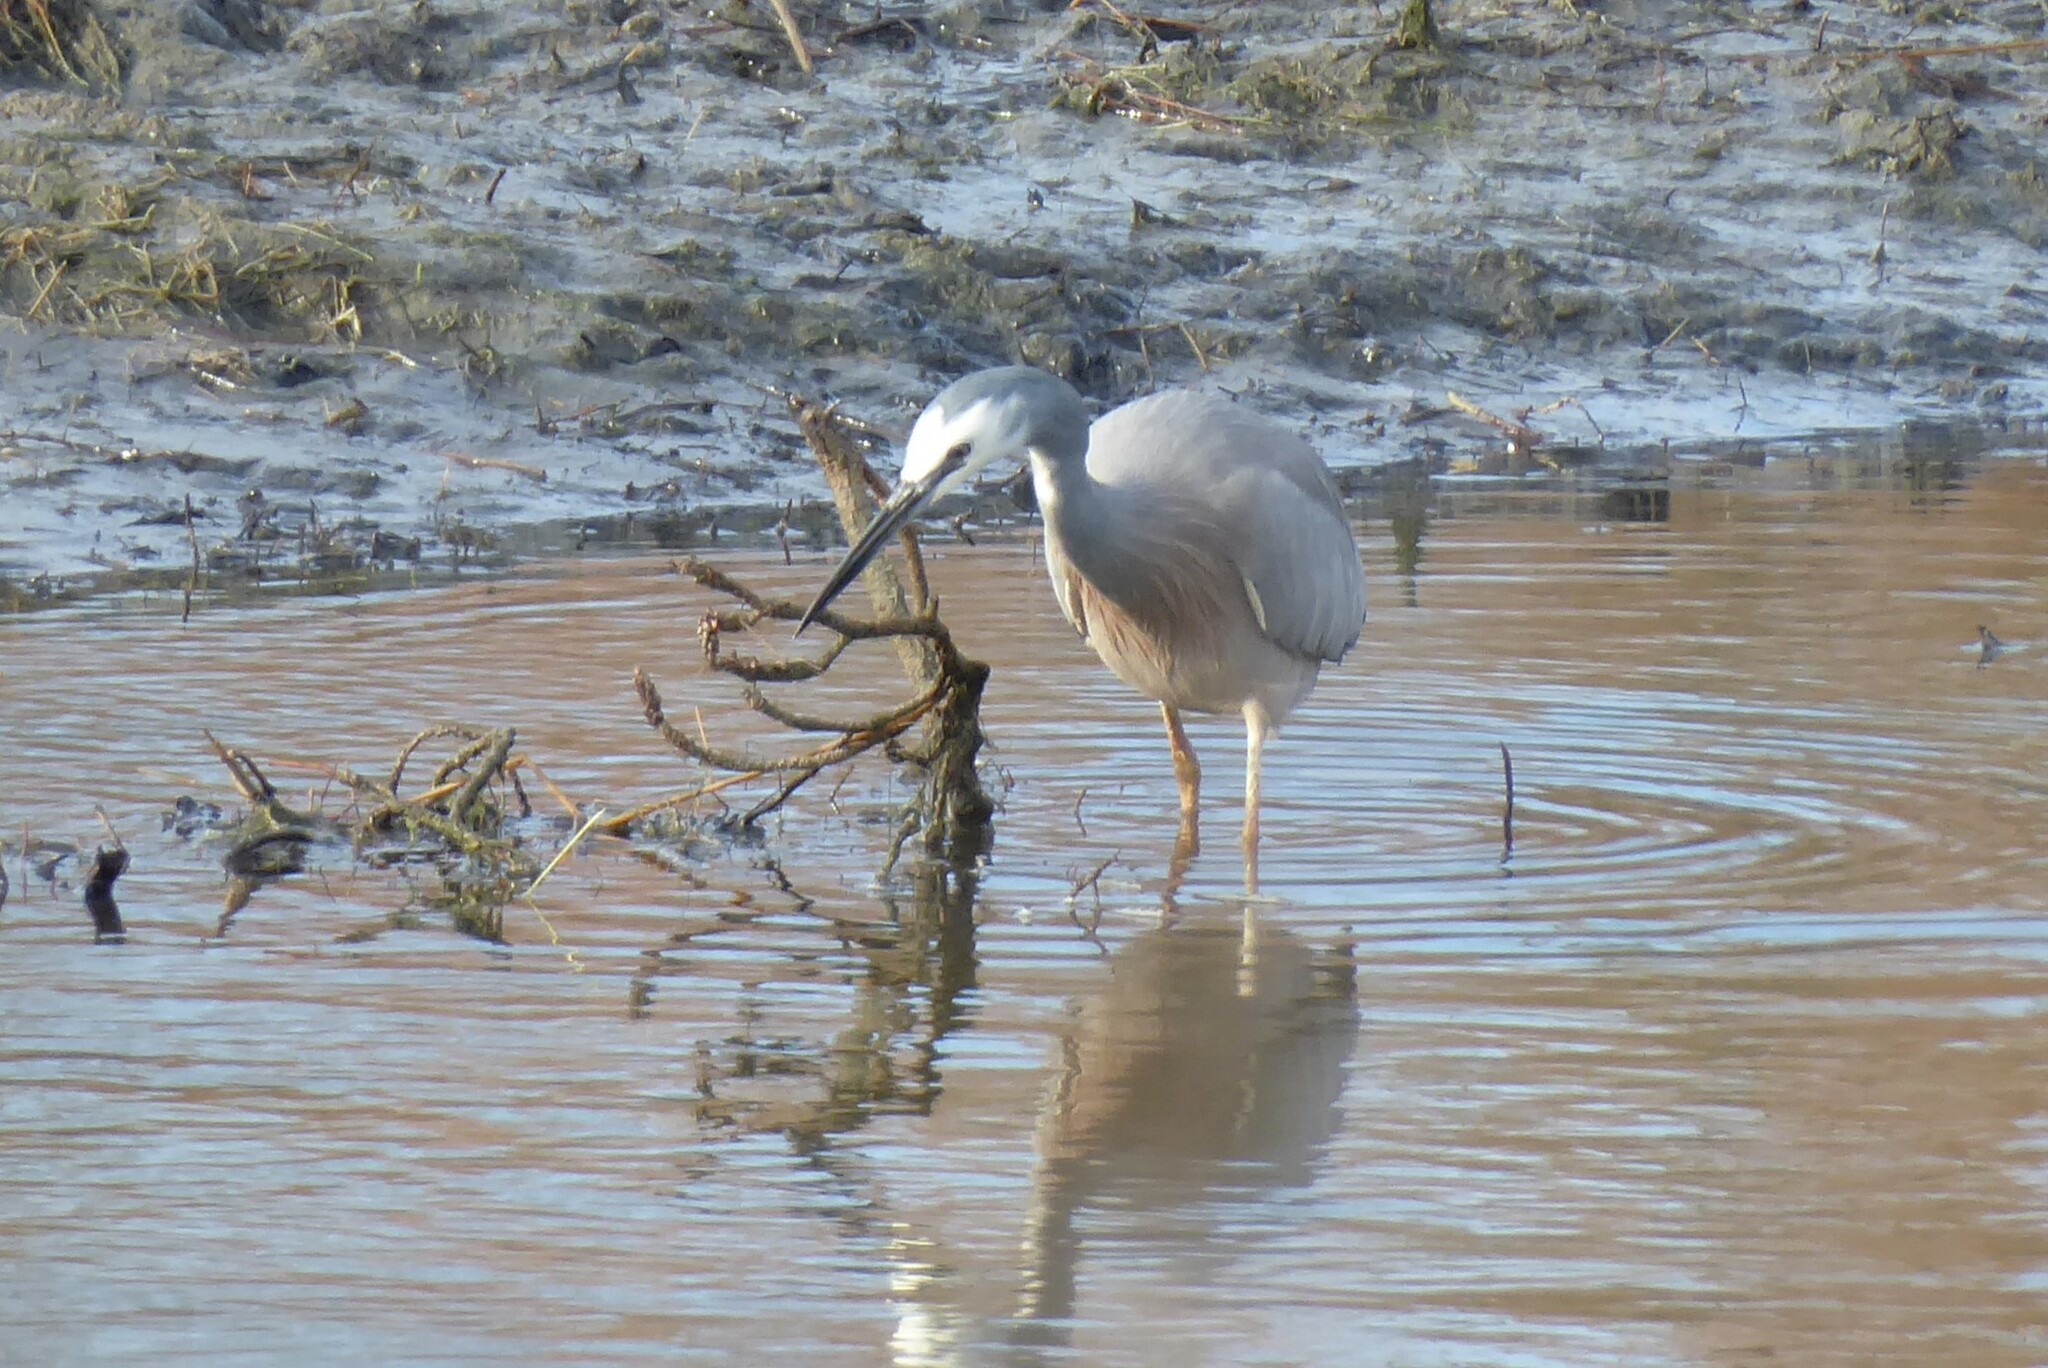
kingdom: Animalia
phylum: Chordata
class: Aves
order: Pelecaniformes
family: Ardeidae
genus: Egretta
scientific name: Egretta novaehollandiae
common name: White-faced heron
